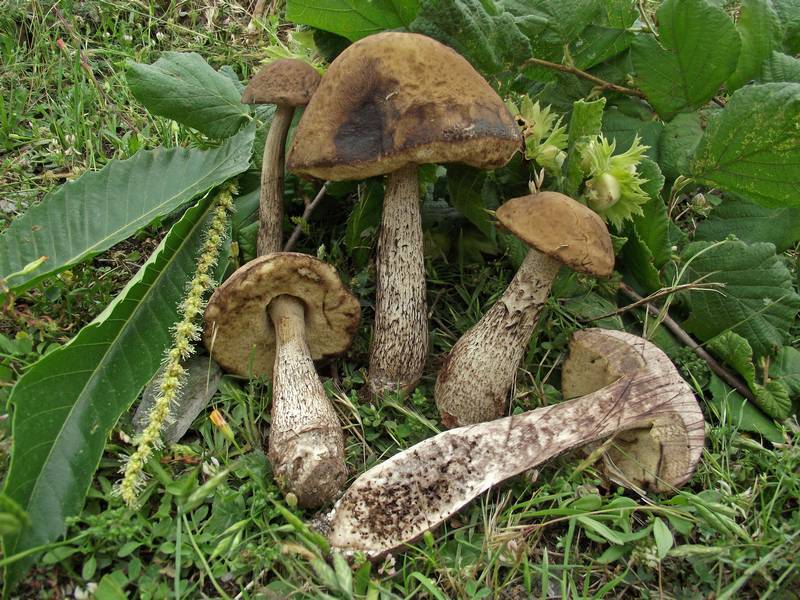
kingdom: Fungi
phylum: Basidiomycota
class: Agaricomycetes
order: Boletales
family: Boletaceae
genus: Leccinellum
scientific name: Leccinellum pseudoscabrum
